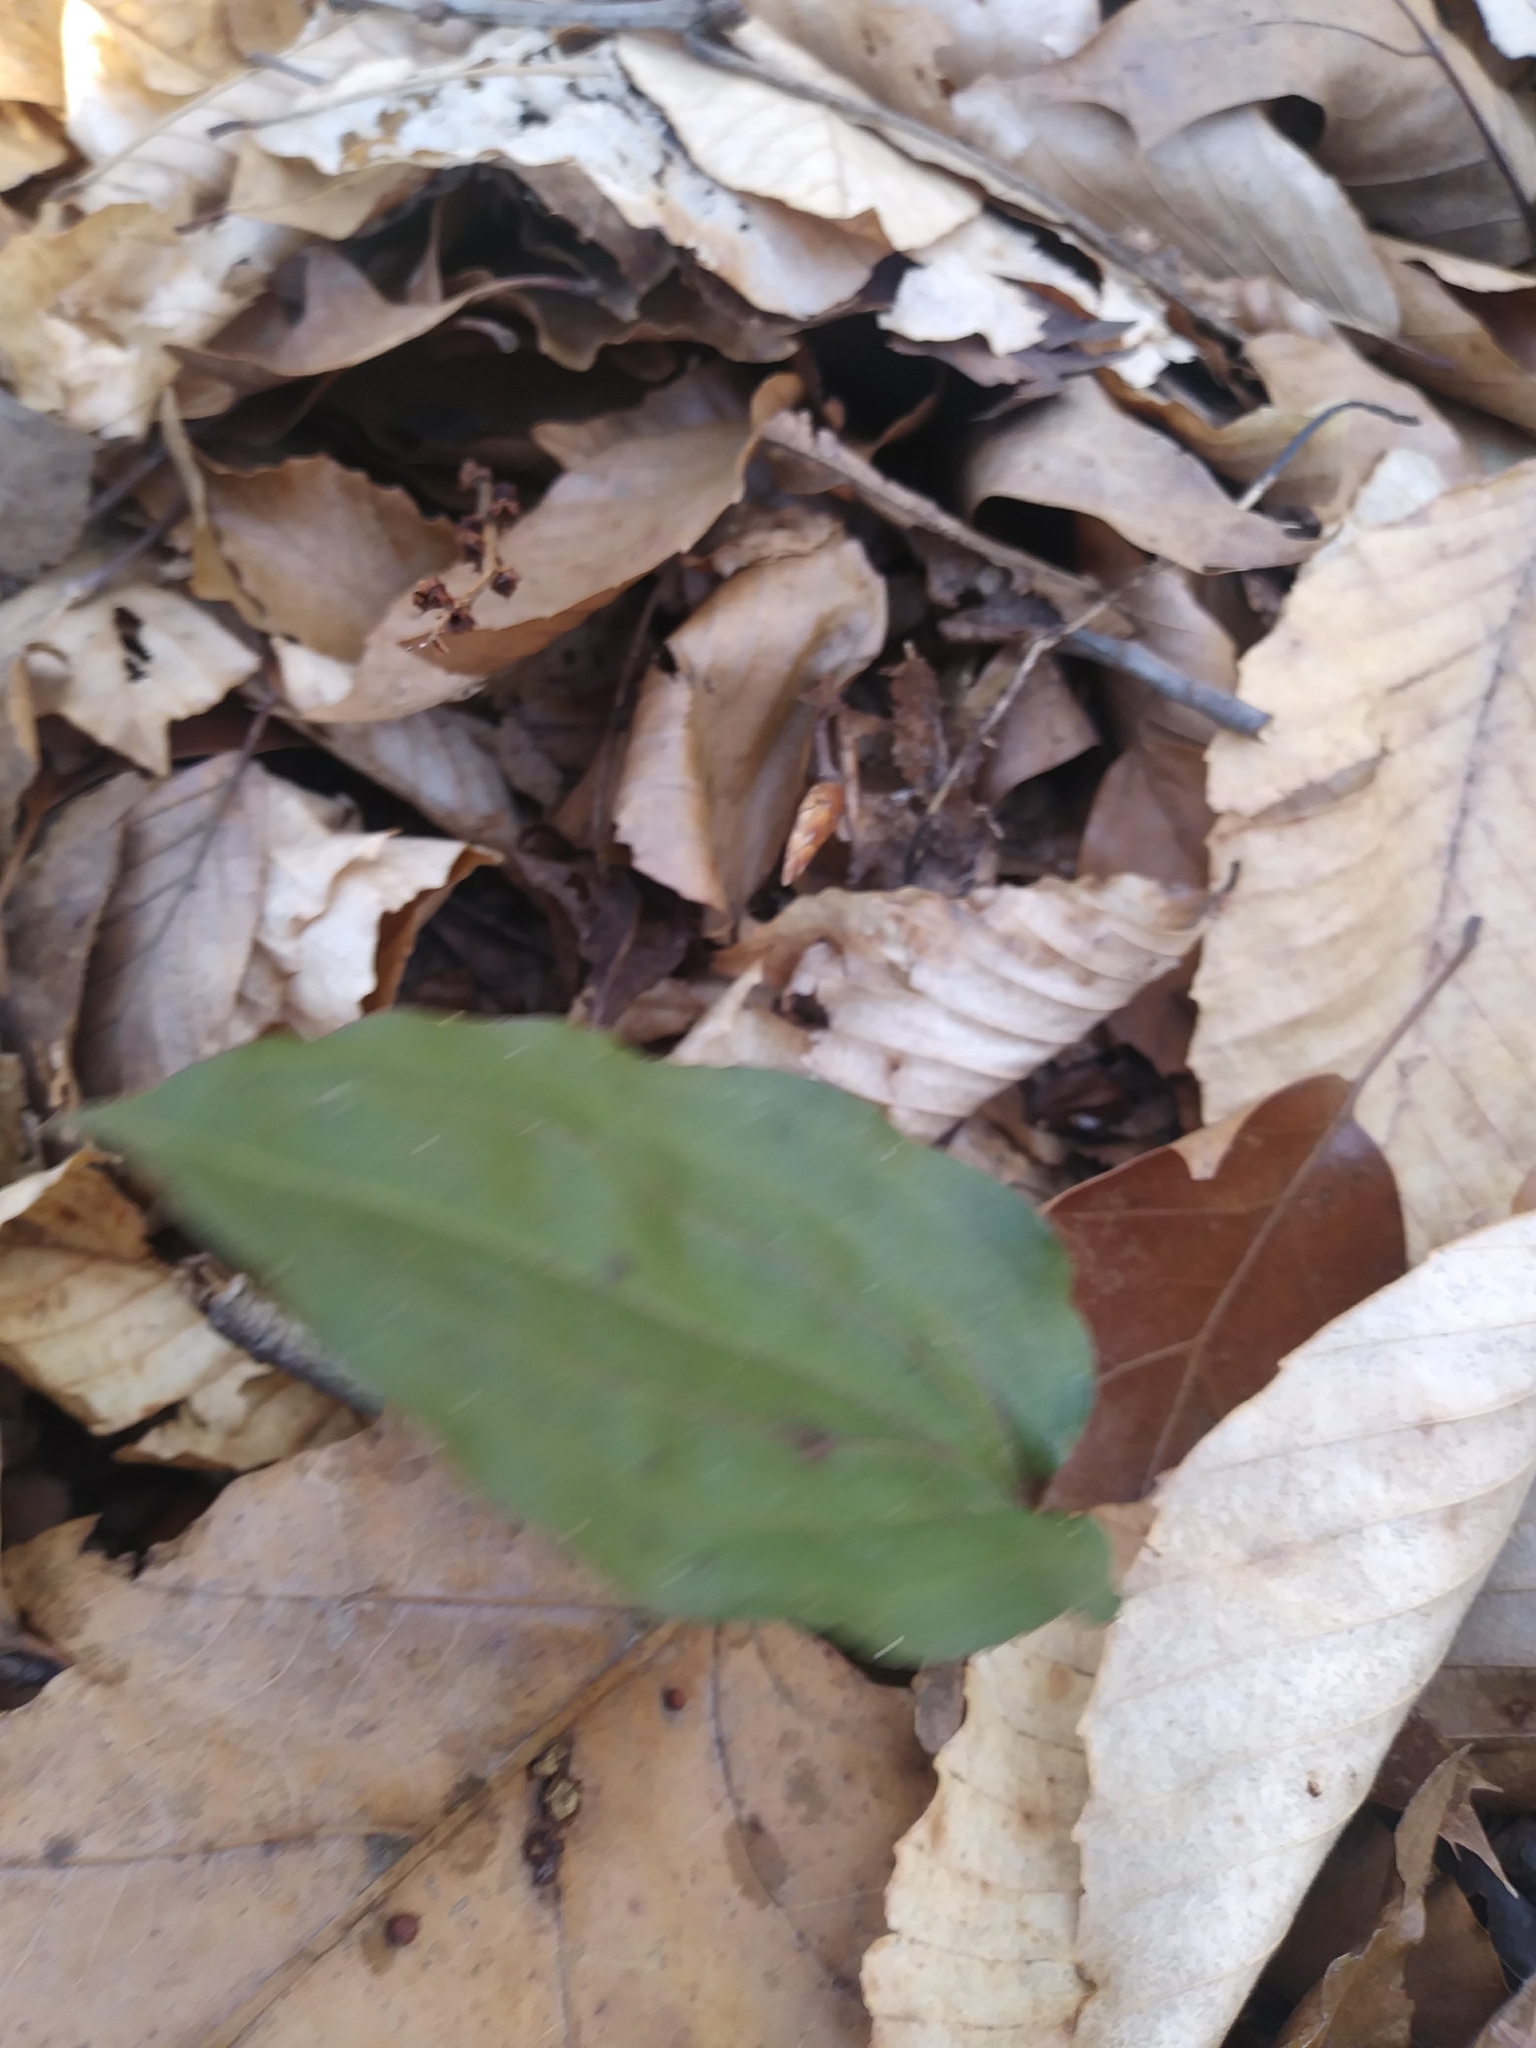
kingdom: Plantae
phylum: Tracheophyta
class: Liliopsida
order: Asparagales
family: Orchidaceae
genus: Tipularia
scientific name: Tipularia discolor
